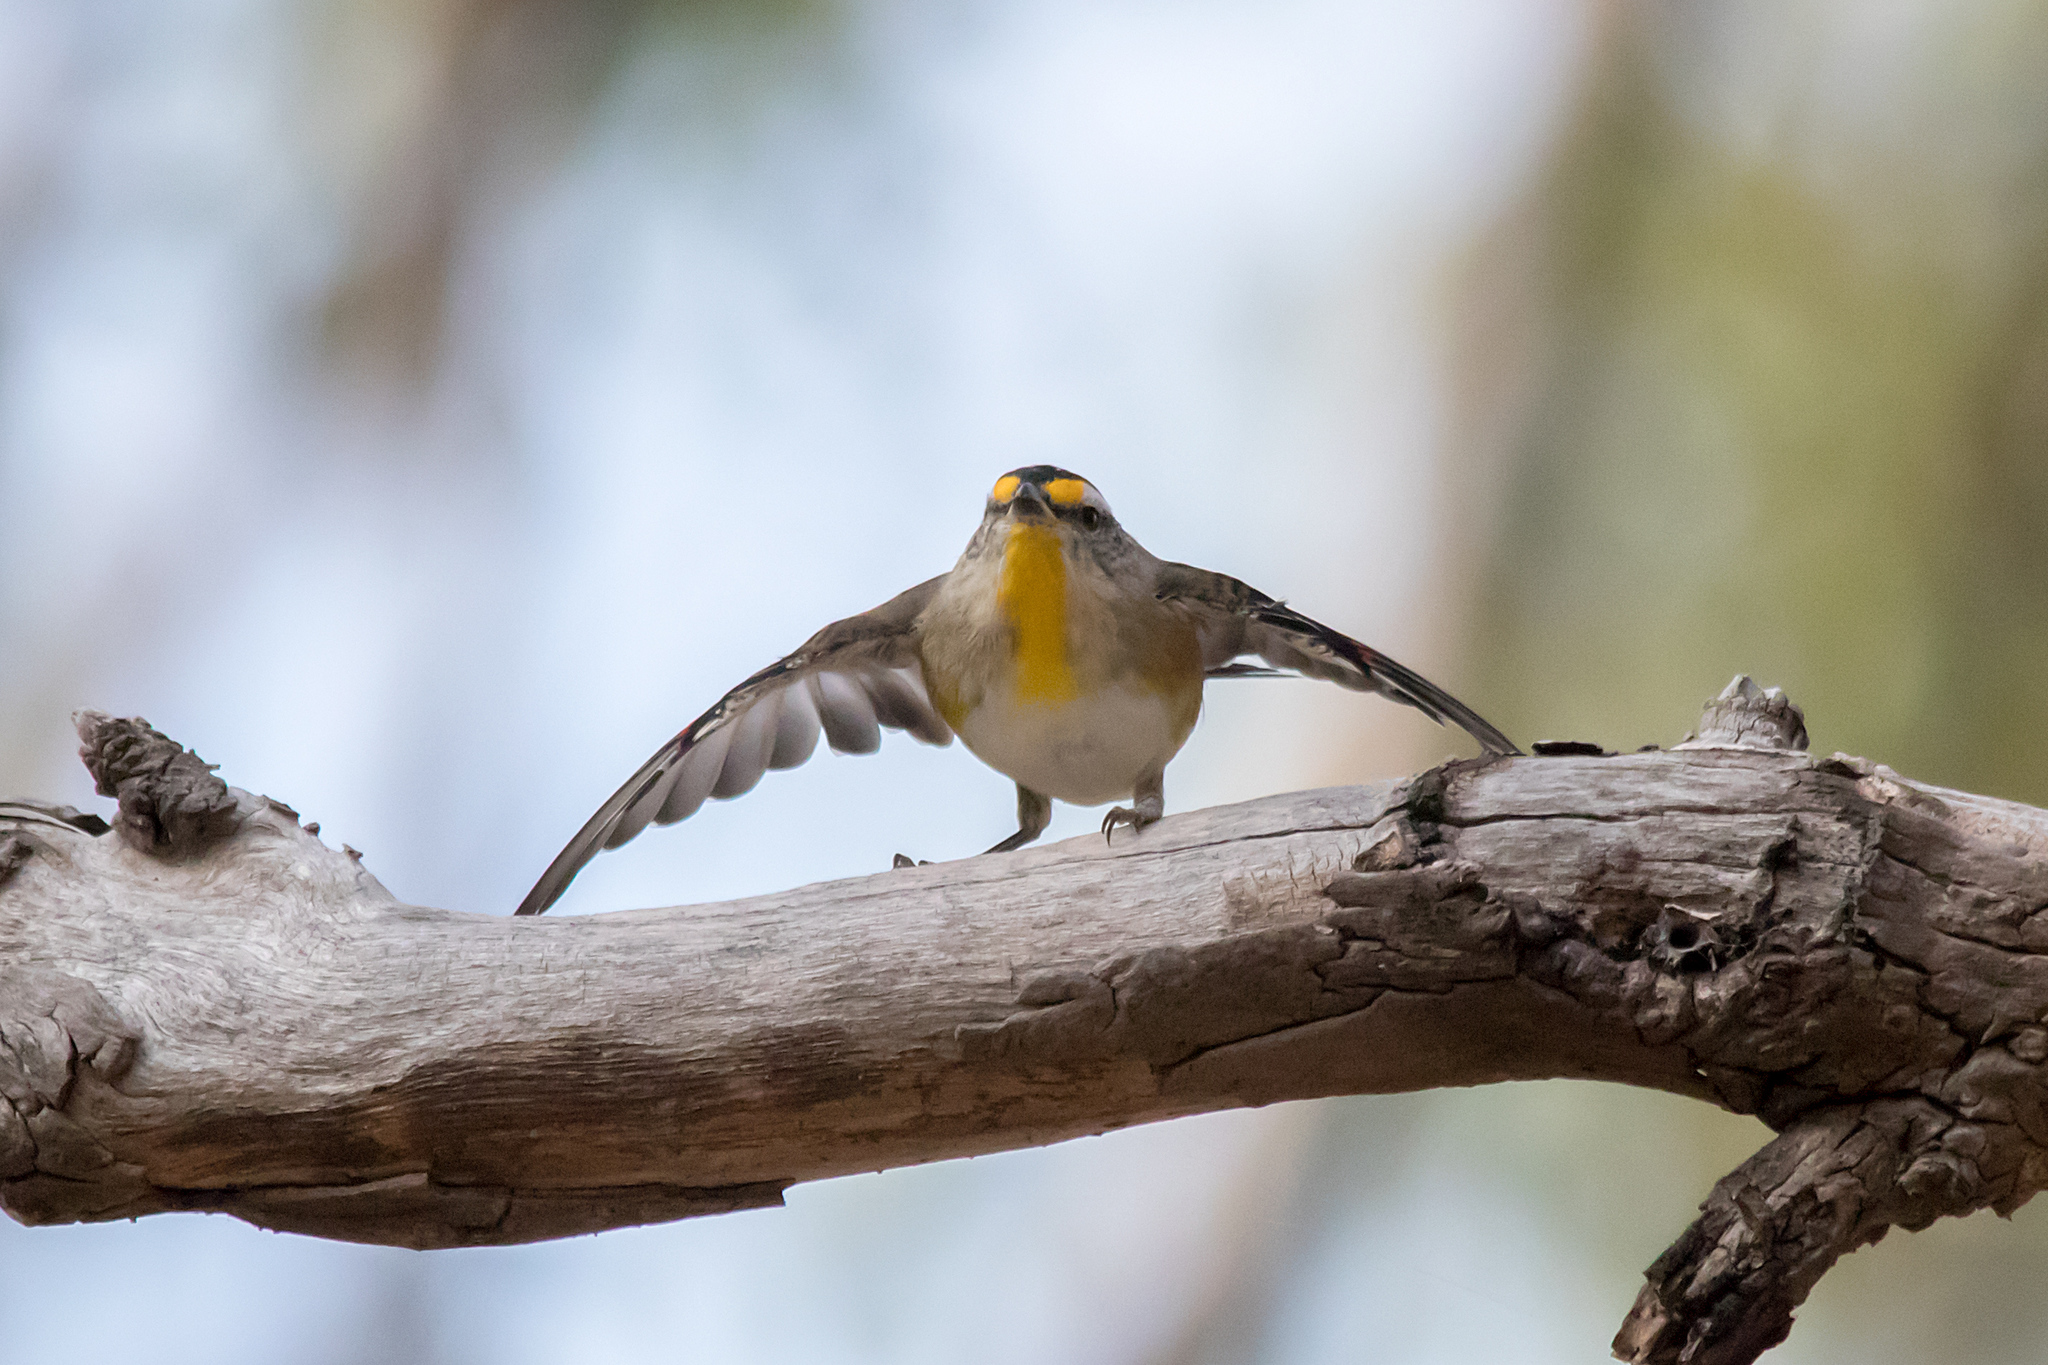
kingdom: Animalia
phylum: Chordata
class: Aves
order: Passeriformes
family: Pardalotidae
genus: Pardalotus
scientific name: Pardalotus striatus
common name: Striated pardalote
